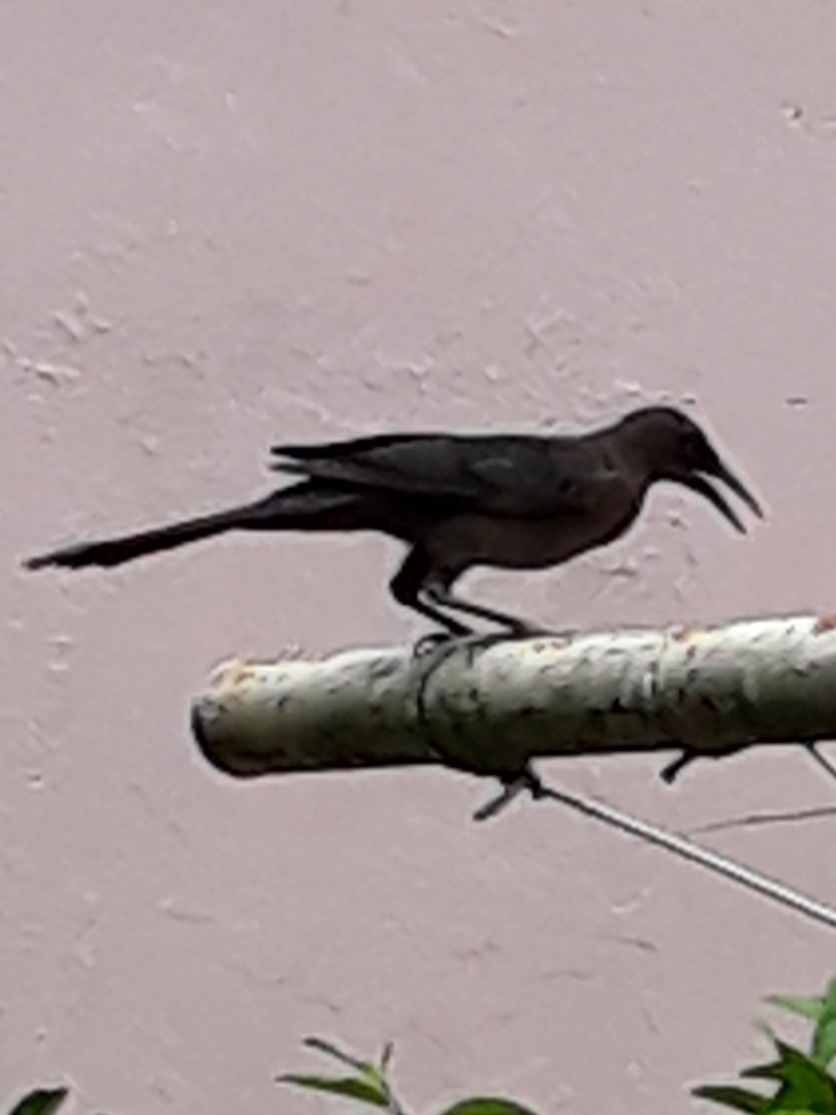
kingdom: Animalia
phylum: Chordata
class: Aves
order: Passeriformes
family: Icteridae
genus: Quiscalus
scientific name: Quiscalus mexicanus
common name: Great-tailed grackle
